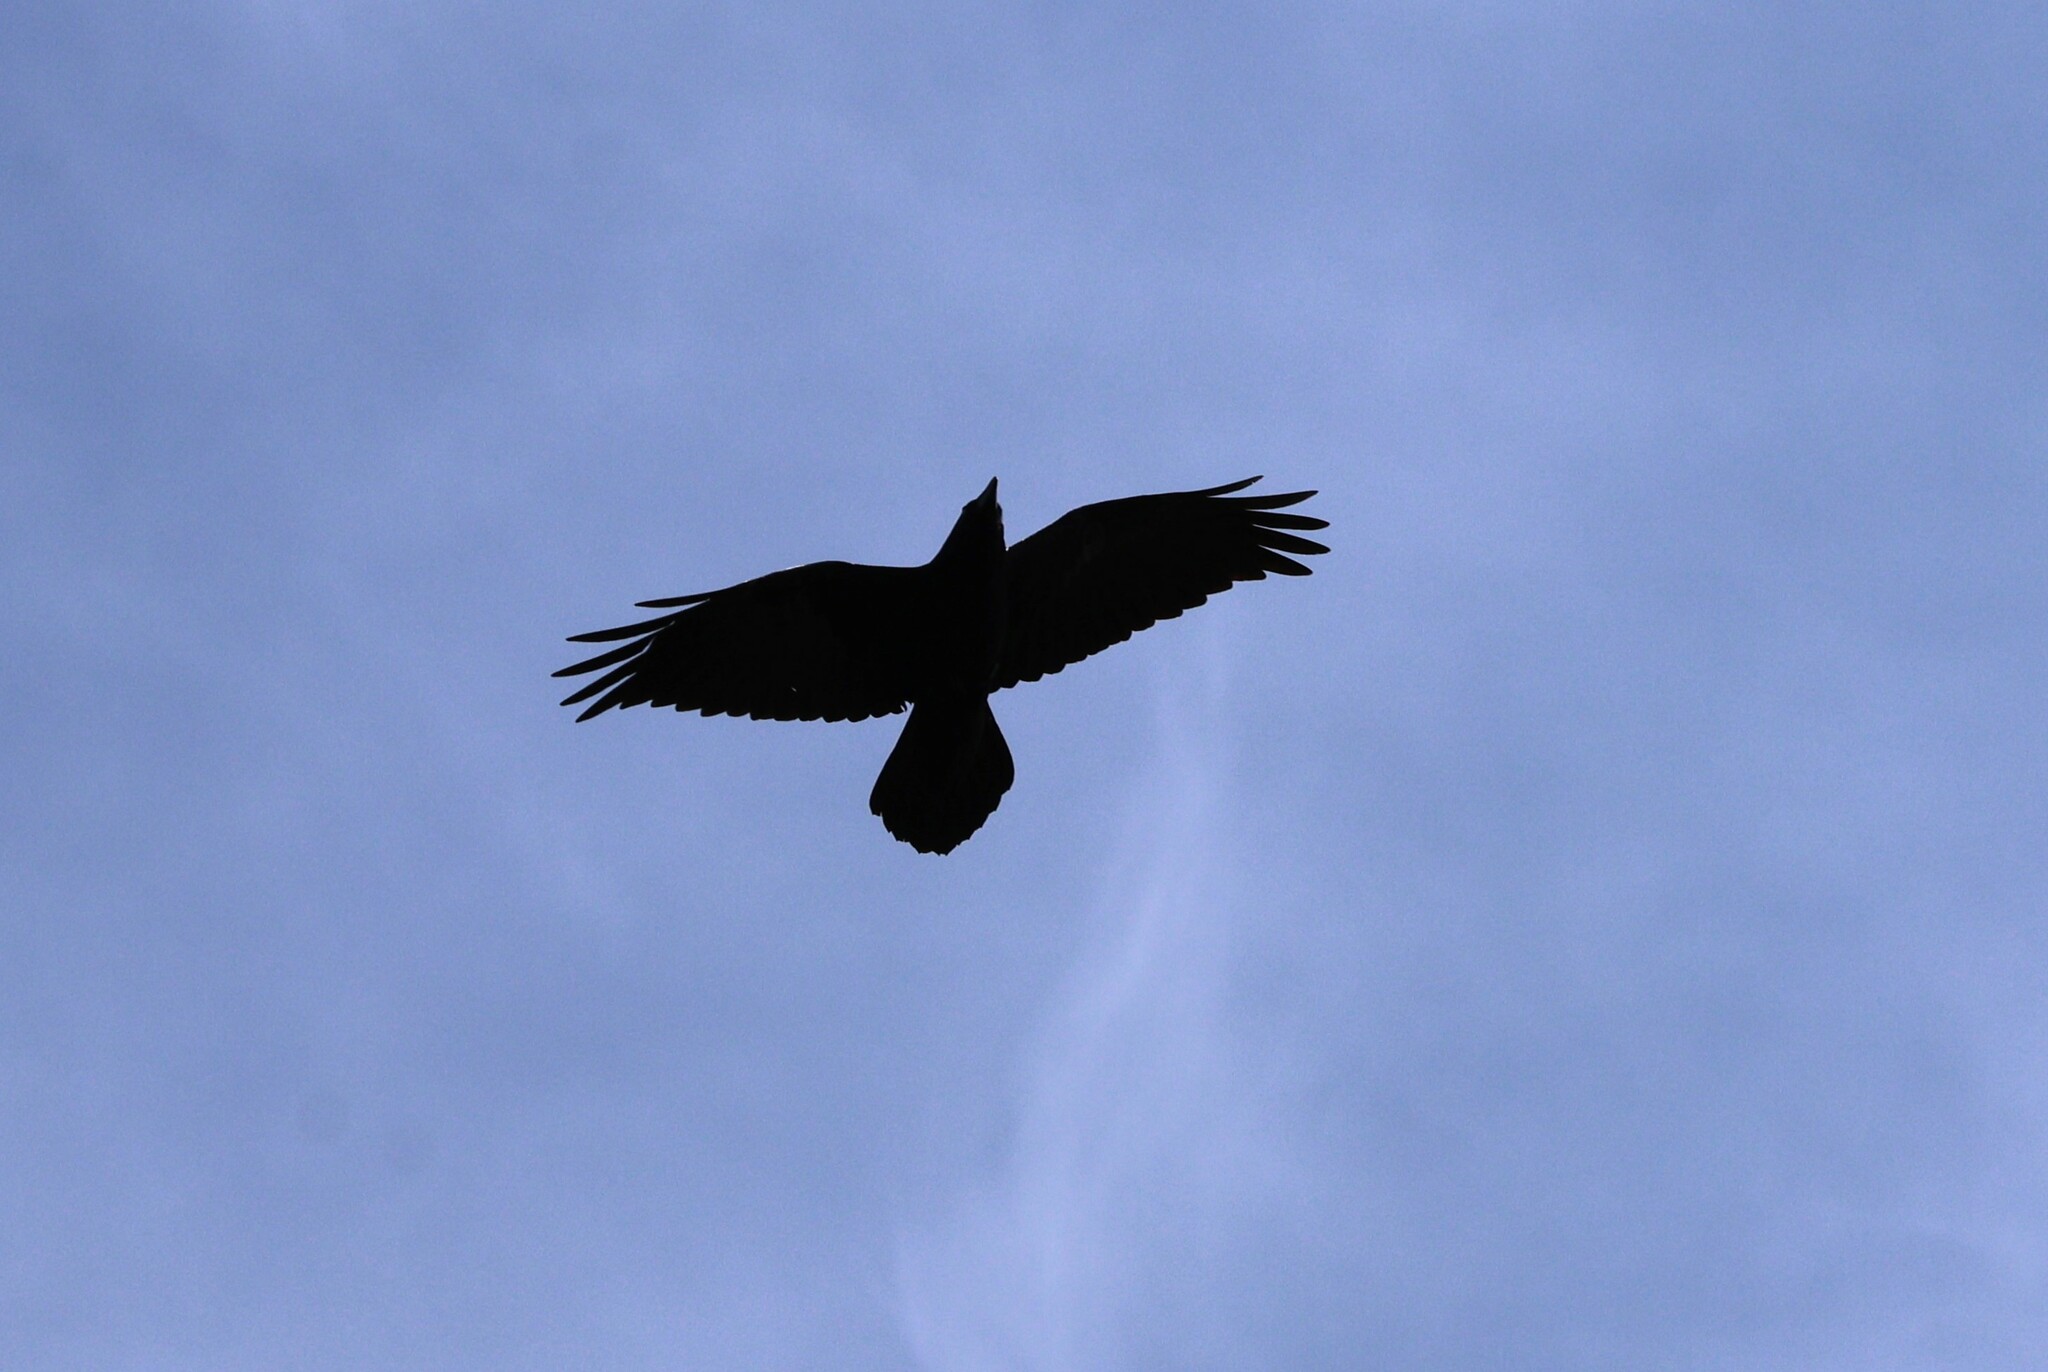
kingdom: Animalia
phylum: Chordata
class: Aves
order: Passeriformes
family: Corvidae
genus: Corvus
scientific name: Corvus corax
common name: Common raven
